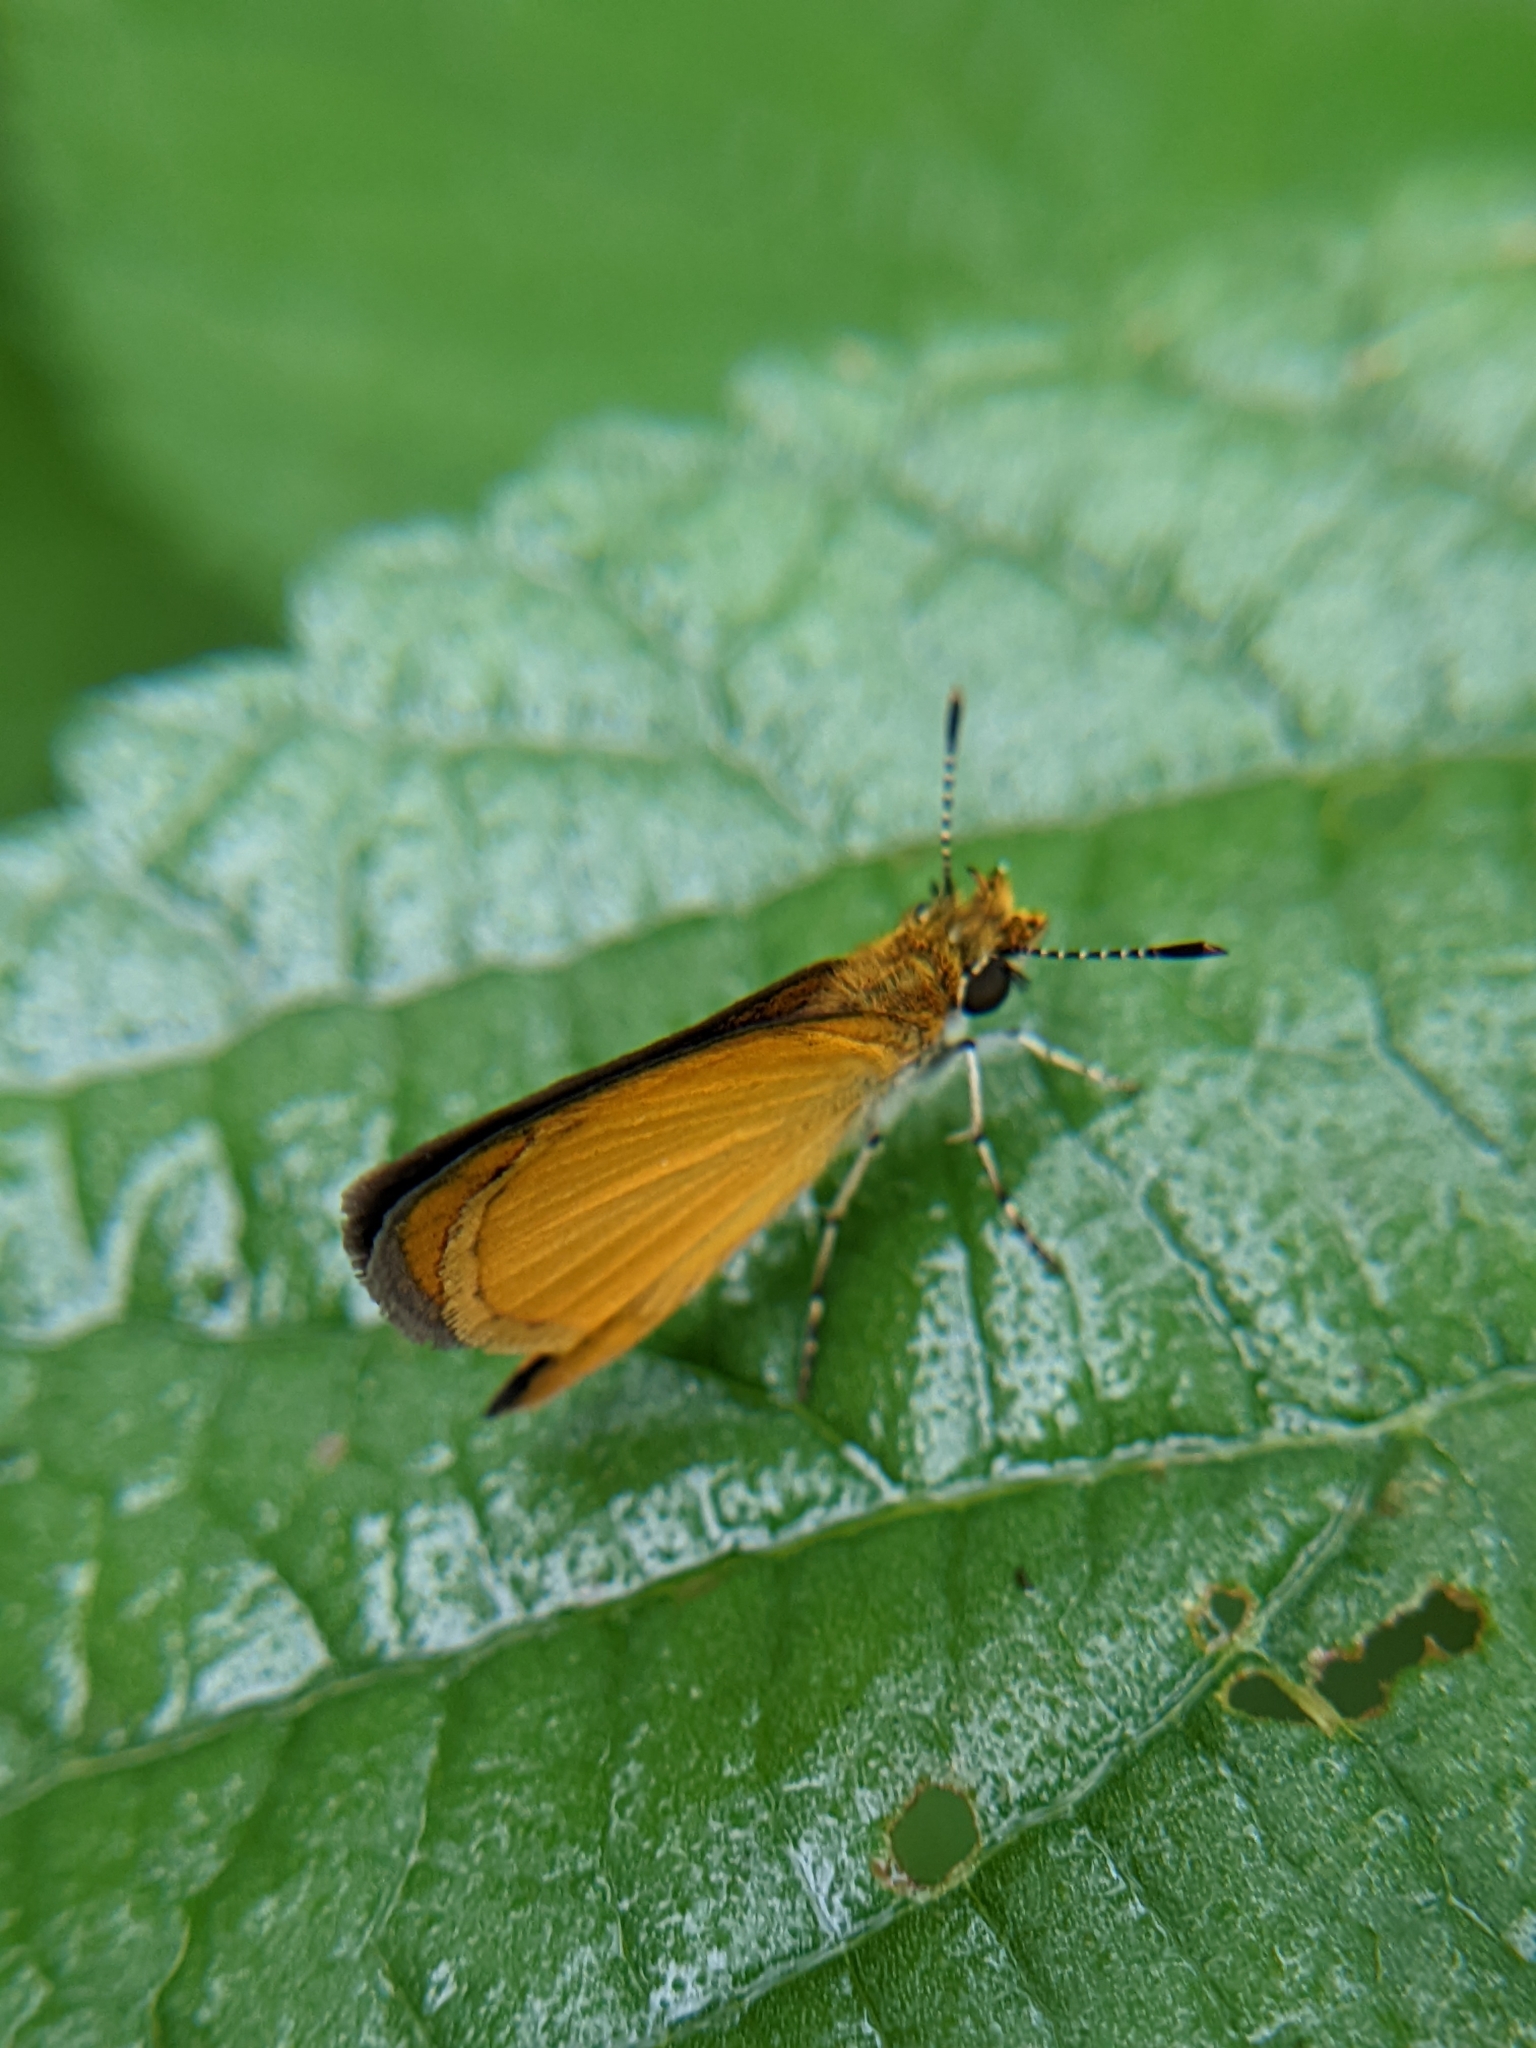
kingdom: Animalia
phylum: Arthropoda
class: Insecta
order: Lepidoptera
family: Hesperiidae
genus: Ancyloxypha
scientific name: Ancyloxypha numitor
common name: Least skipper
